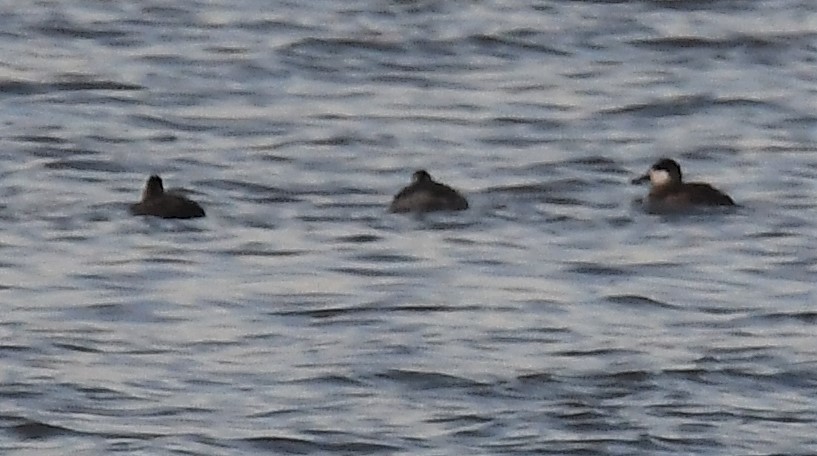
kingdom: Animalia
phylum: Chordata
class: Aves
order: Podicipediformes
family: Podicipedidae
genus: Podiceps
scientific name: Podiceps nigricollis
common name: Black-necked grebe
